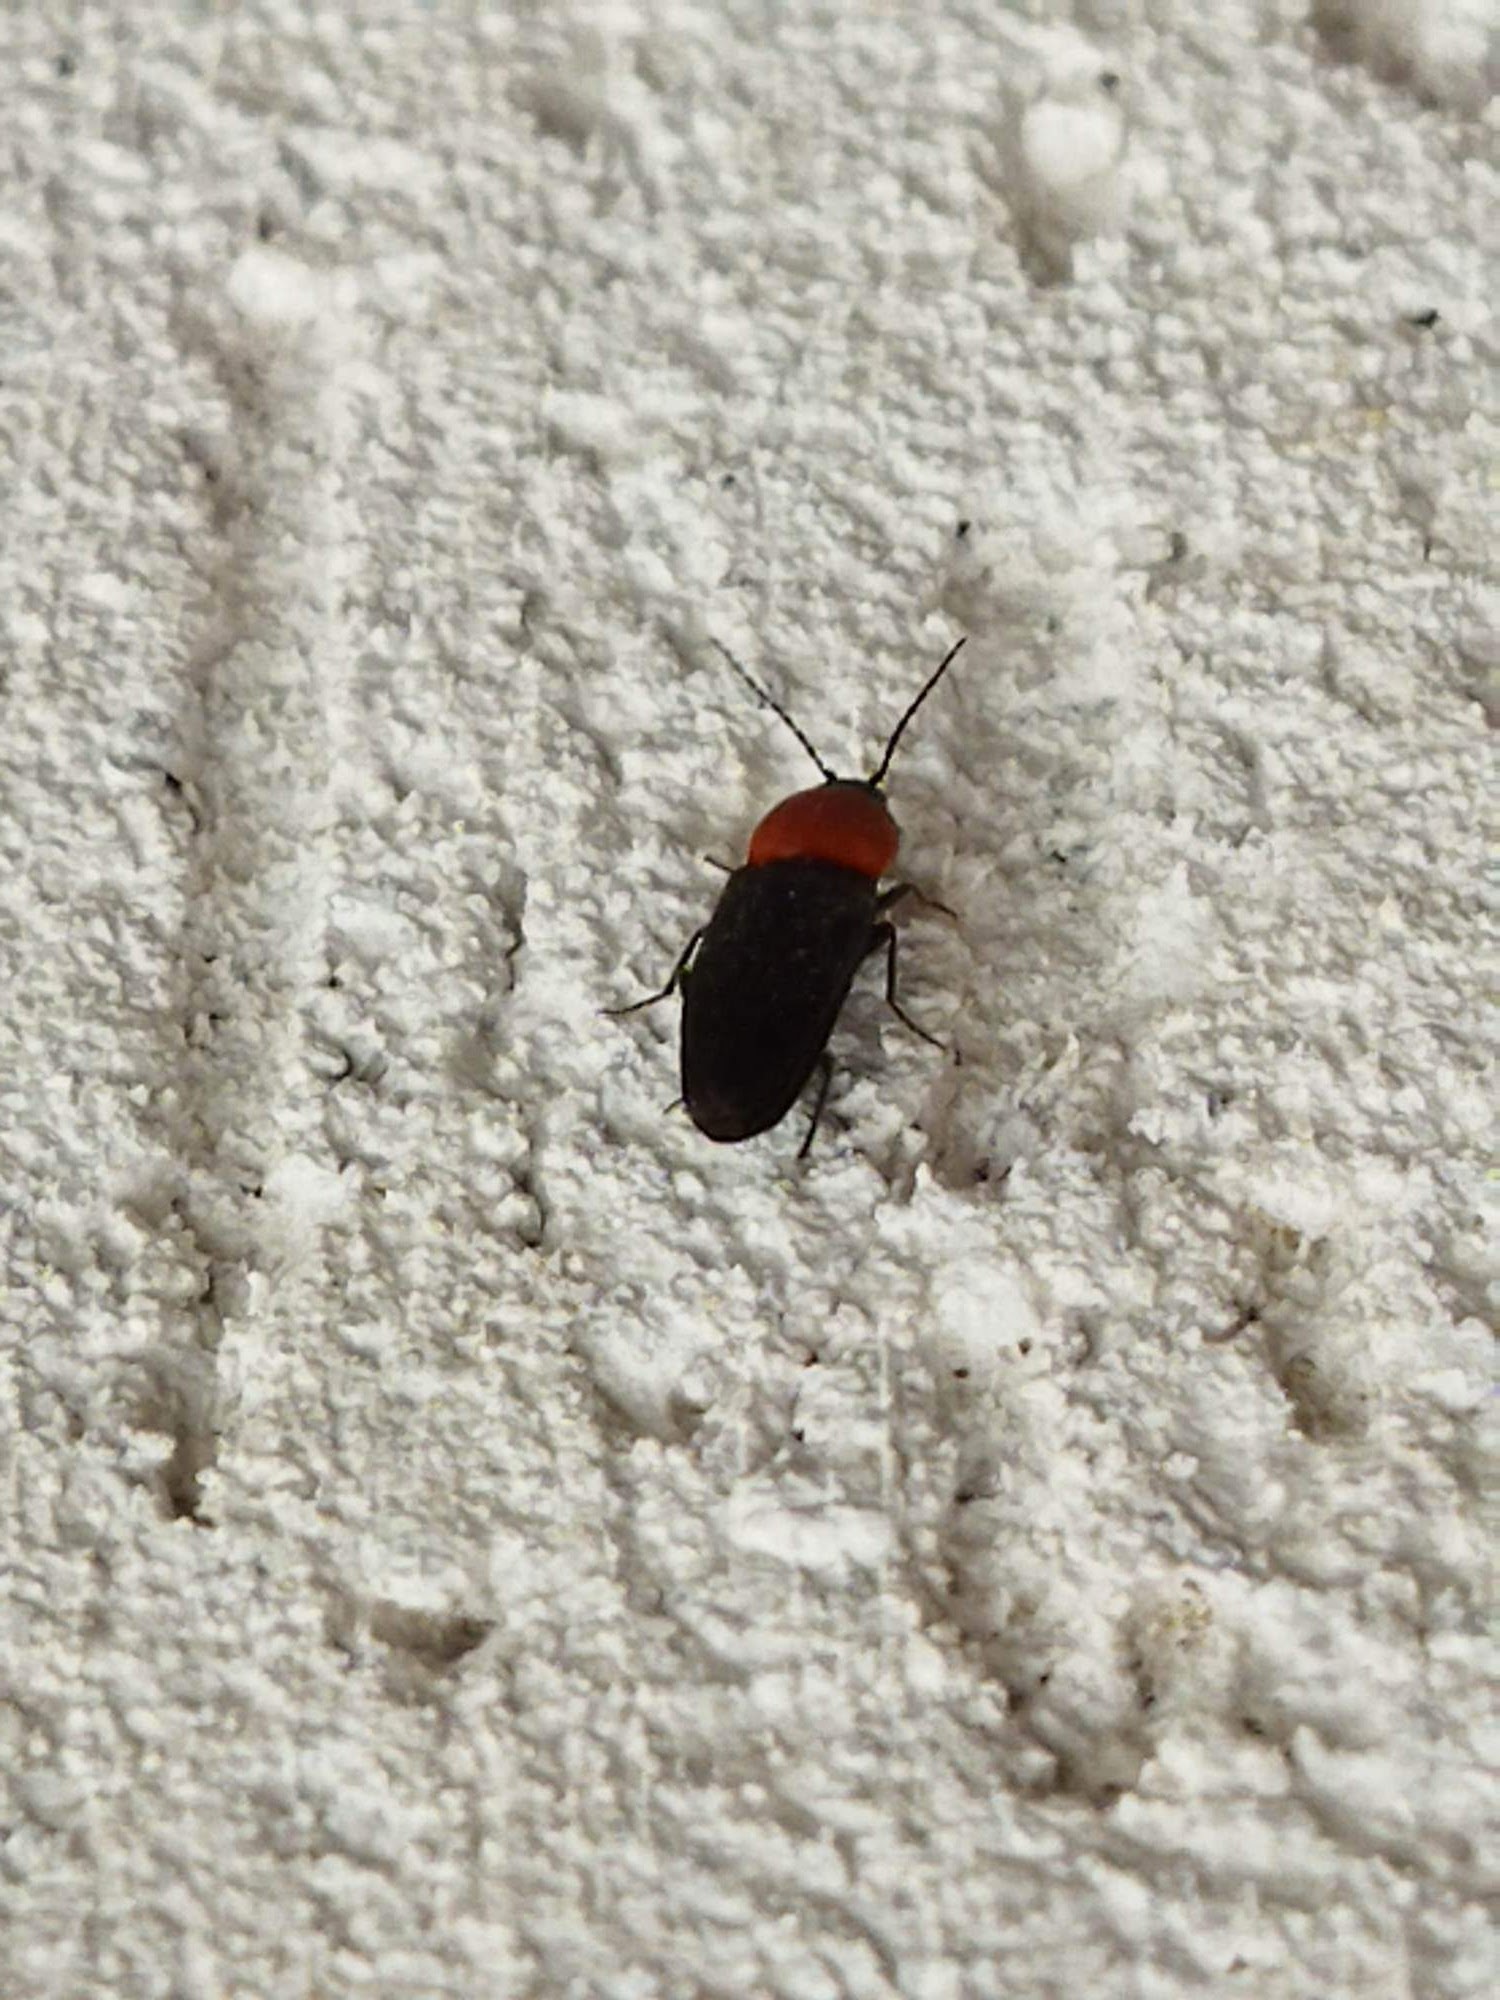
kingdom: Animalia
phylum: Arthropoda
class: Insecta
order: Coleoptera
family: Elateridae
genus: Cardiophorus
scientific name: Cardiophorus gramineus
